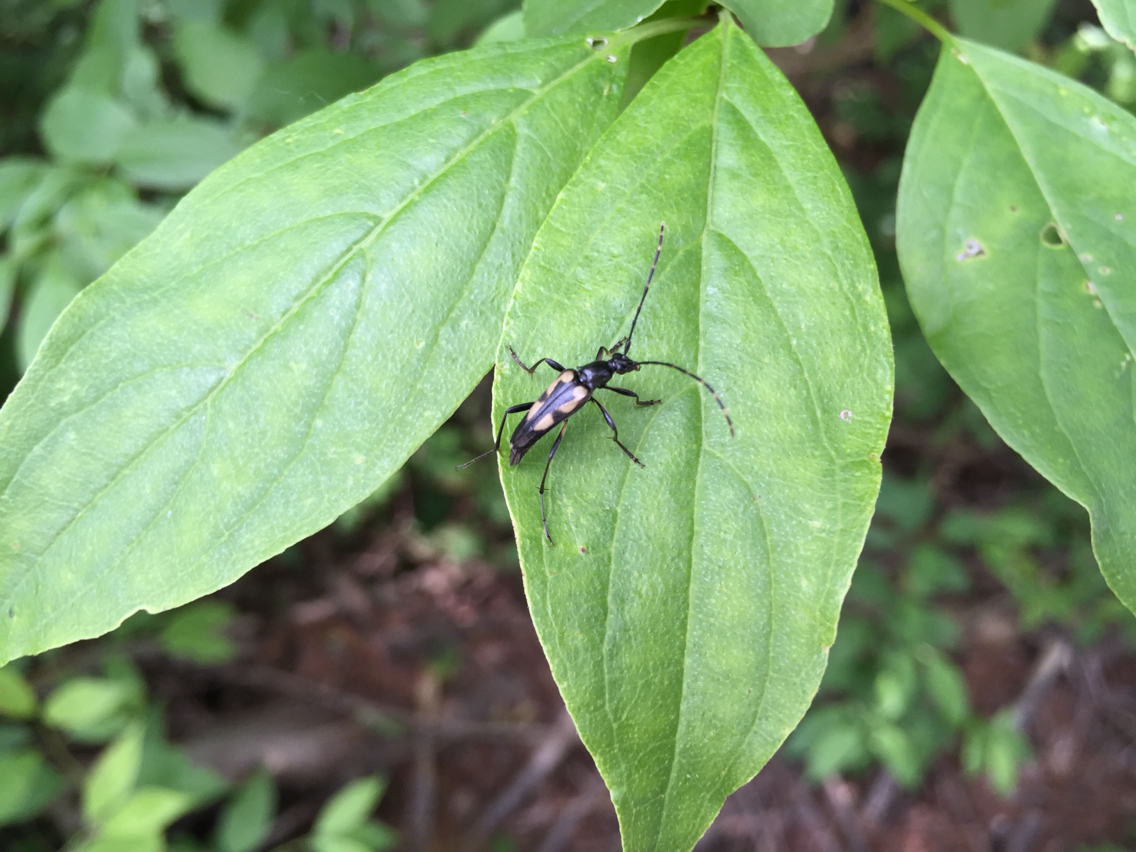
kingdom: Animalia
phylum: Arthropoda
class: Insecta
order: Coleoptera
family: Cerambycidae
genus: Etorofus
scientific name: Etorofus
